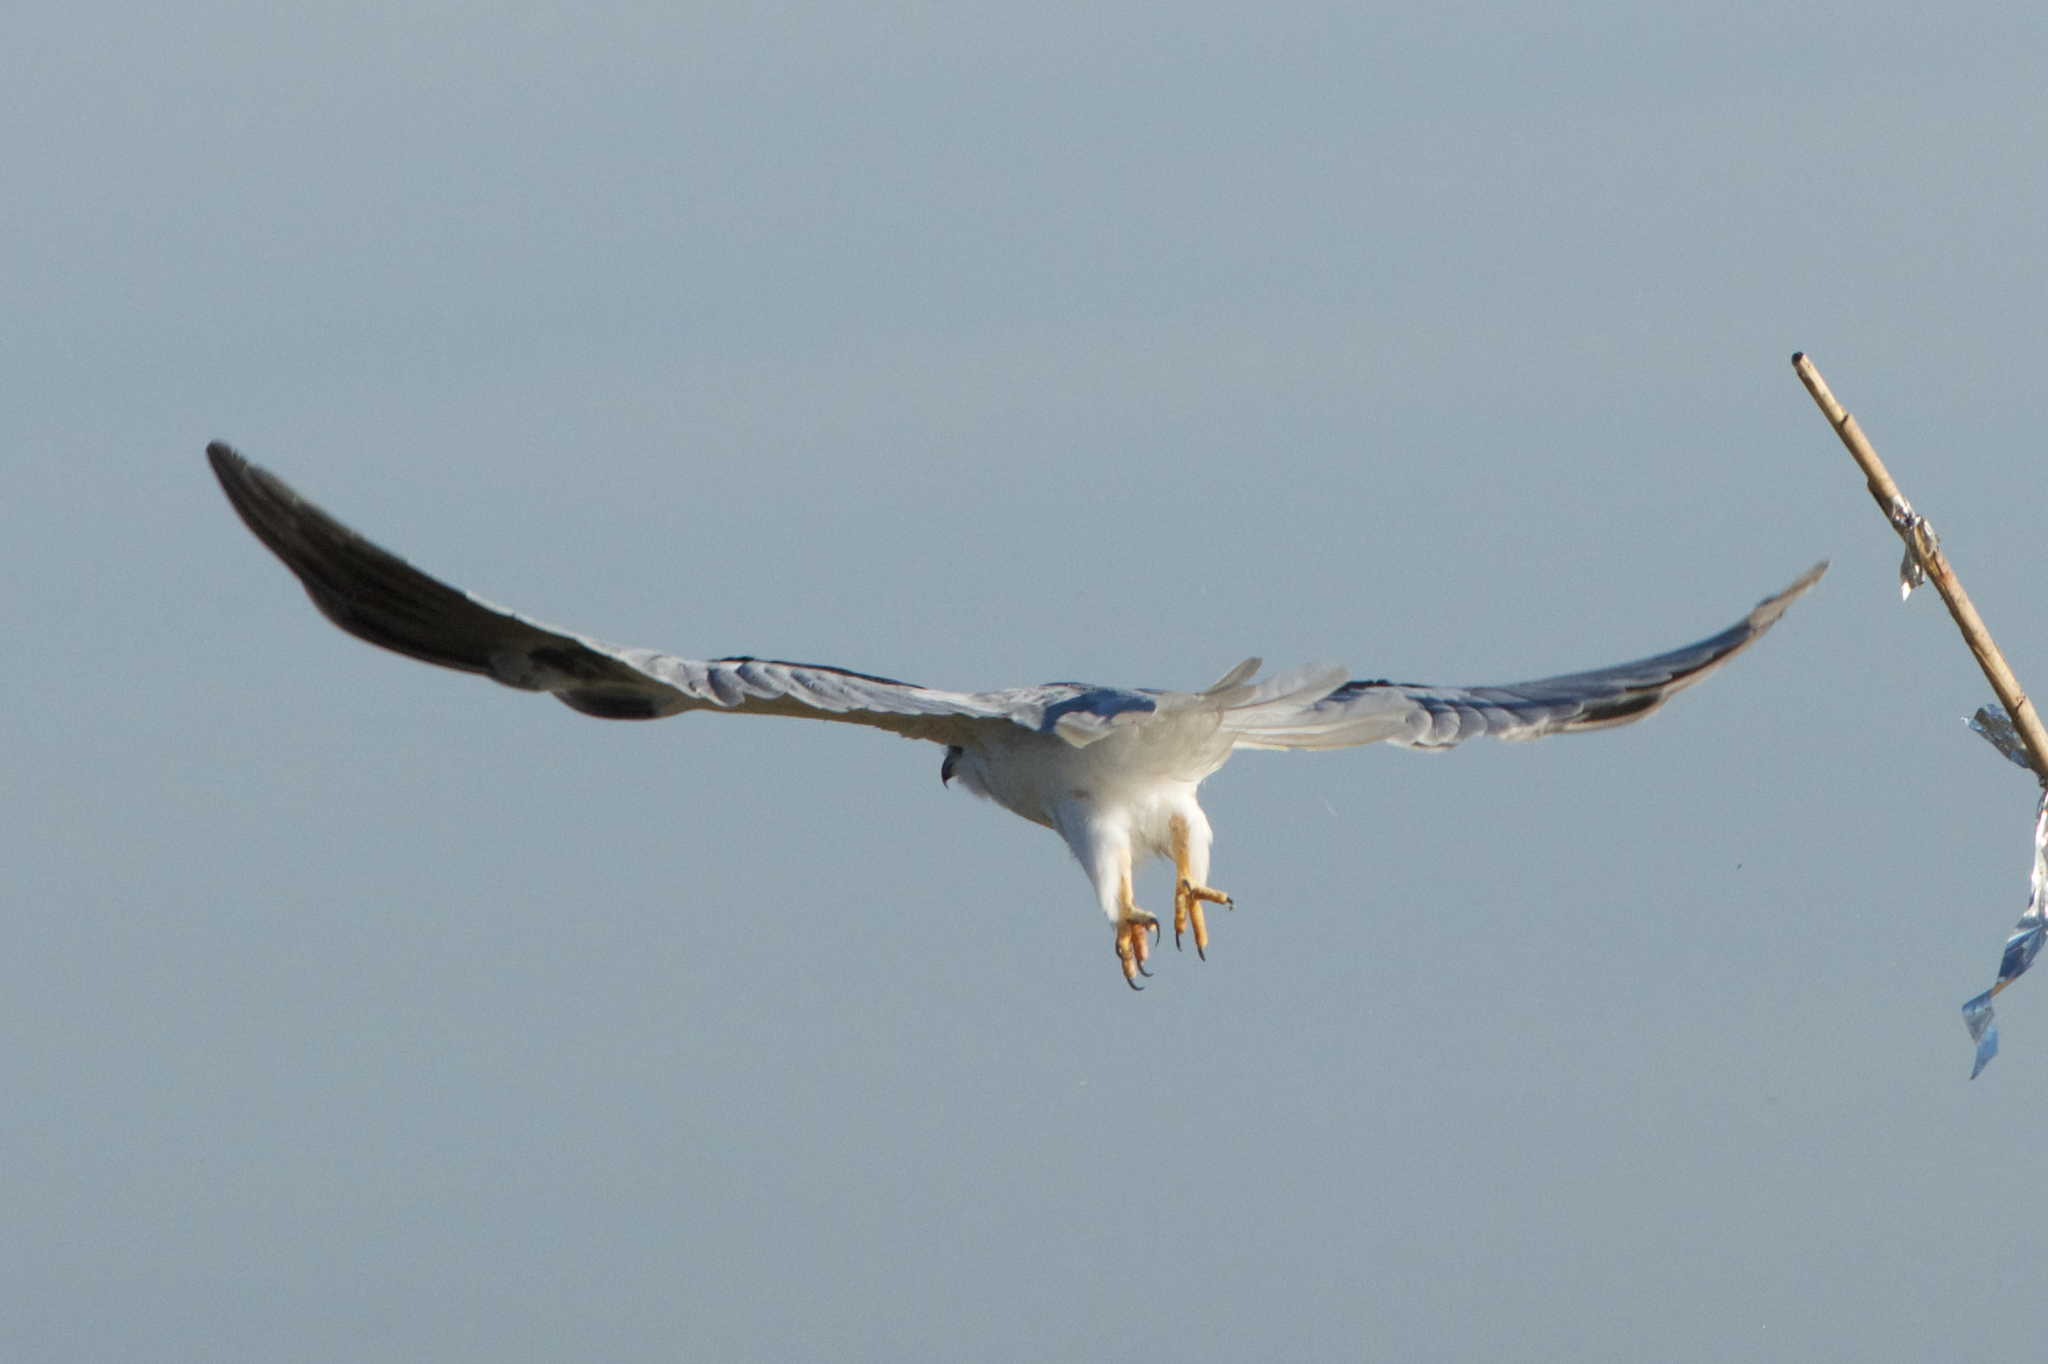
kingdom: Animalia
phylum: Chordata
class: Aves
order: Accipitriformes
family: Accipitridae
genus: Elanus
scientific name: Elanus leucurus
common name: White-tailed kite
